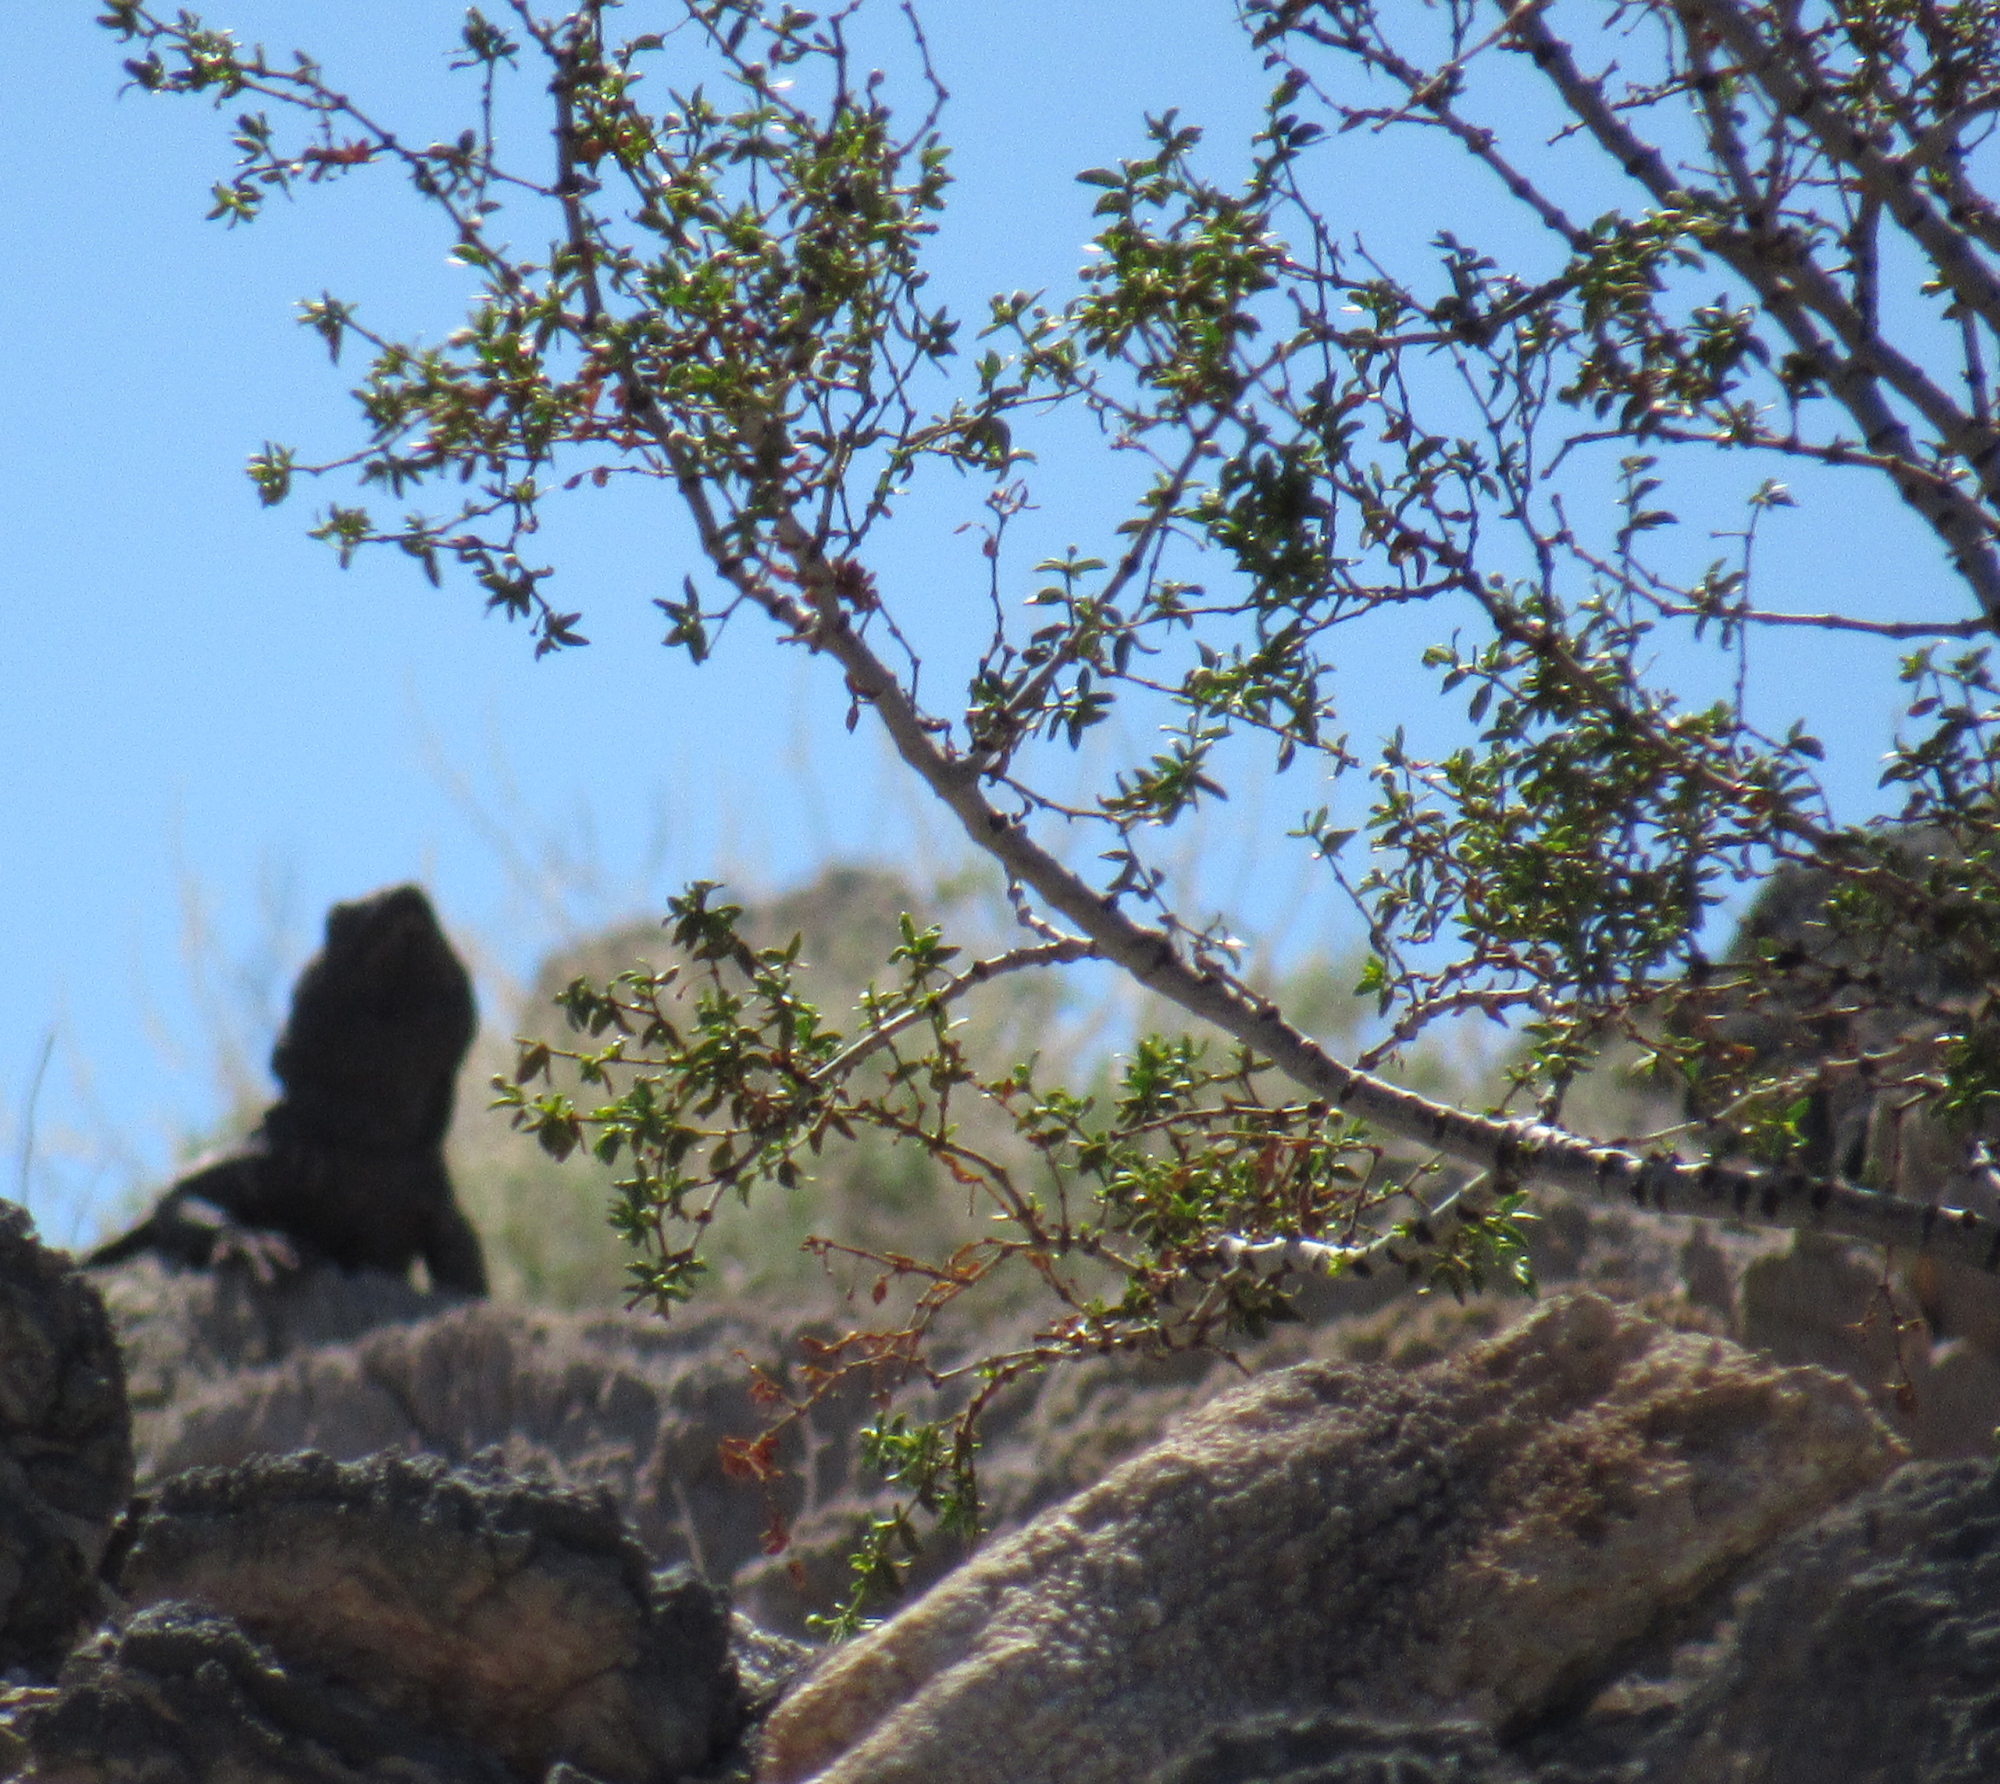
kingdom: Plantae
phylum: Tracheophyta
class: Magnoliopsida
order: Zygophyllales
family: Zygophyllaceae
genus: Larrea
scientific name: Larrea tridentata
